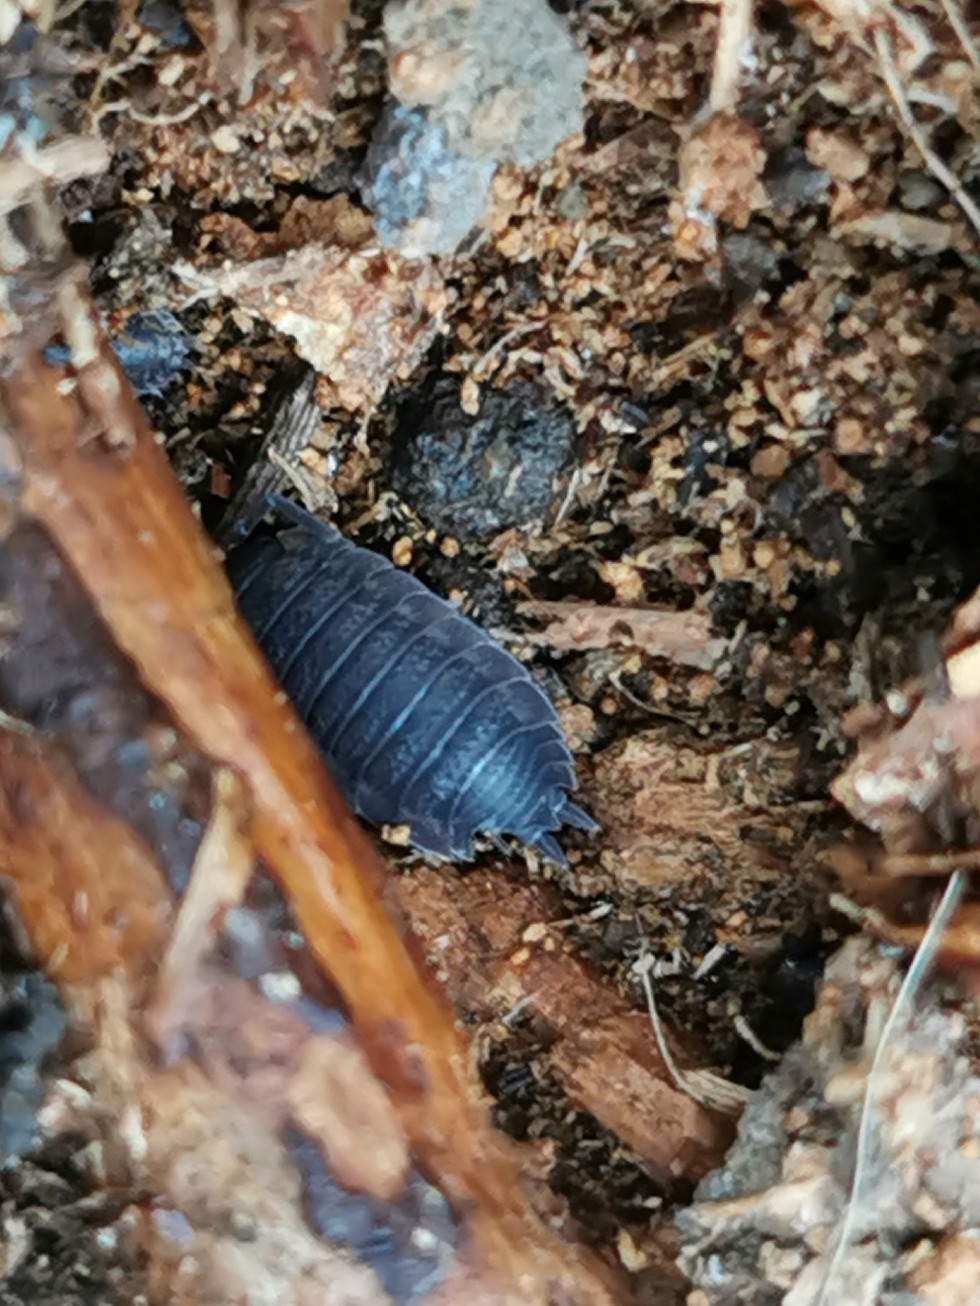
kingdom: Animalia
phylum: Arthropoda
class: Malacostraca
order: Isopoda
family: Porcellionidae
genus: Porcellio
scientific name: Porcellio scaber
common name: Common rough woodlouse
